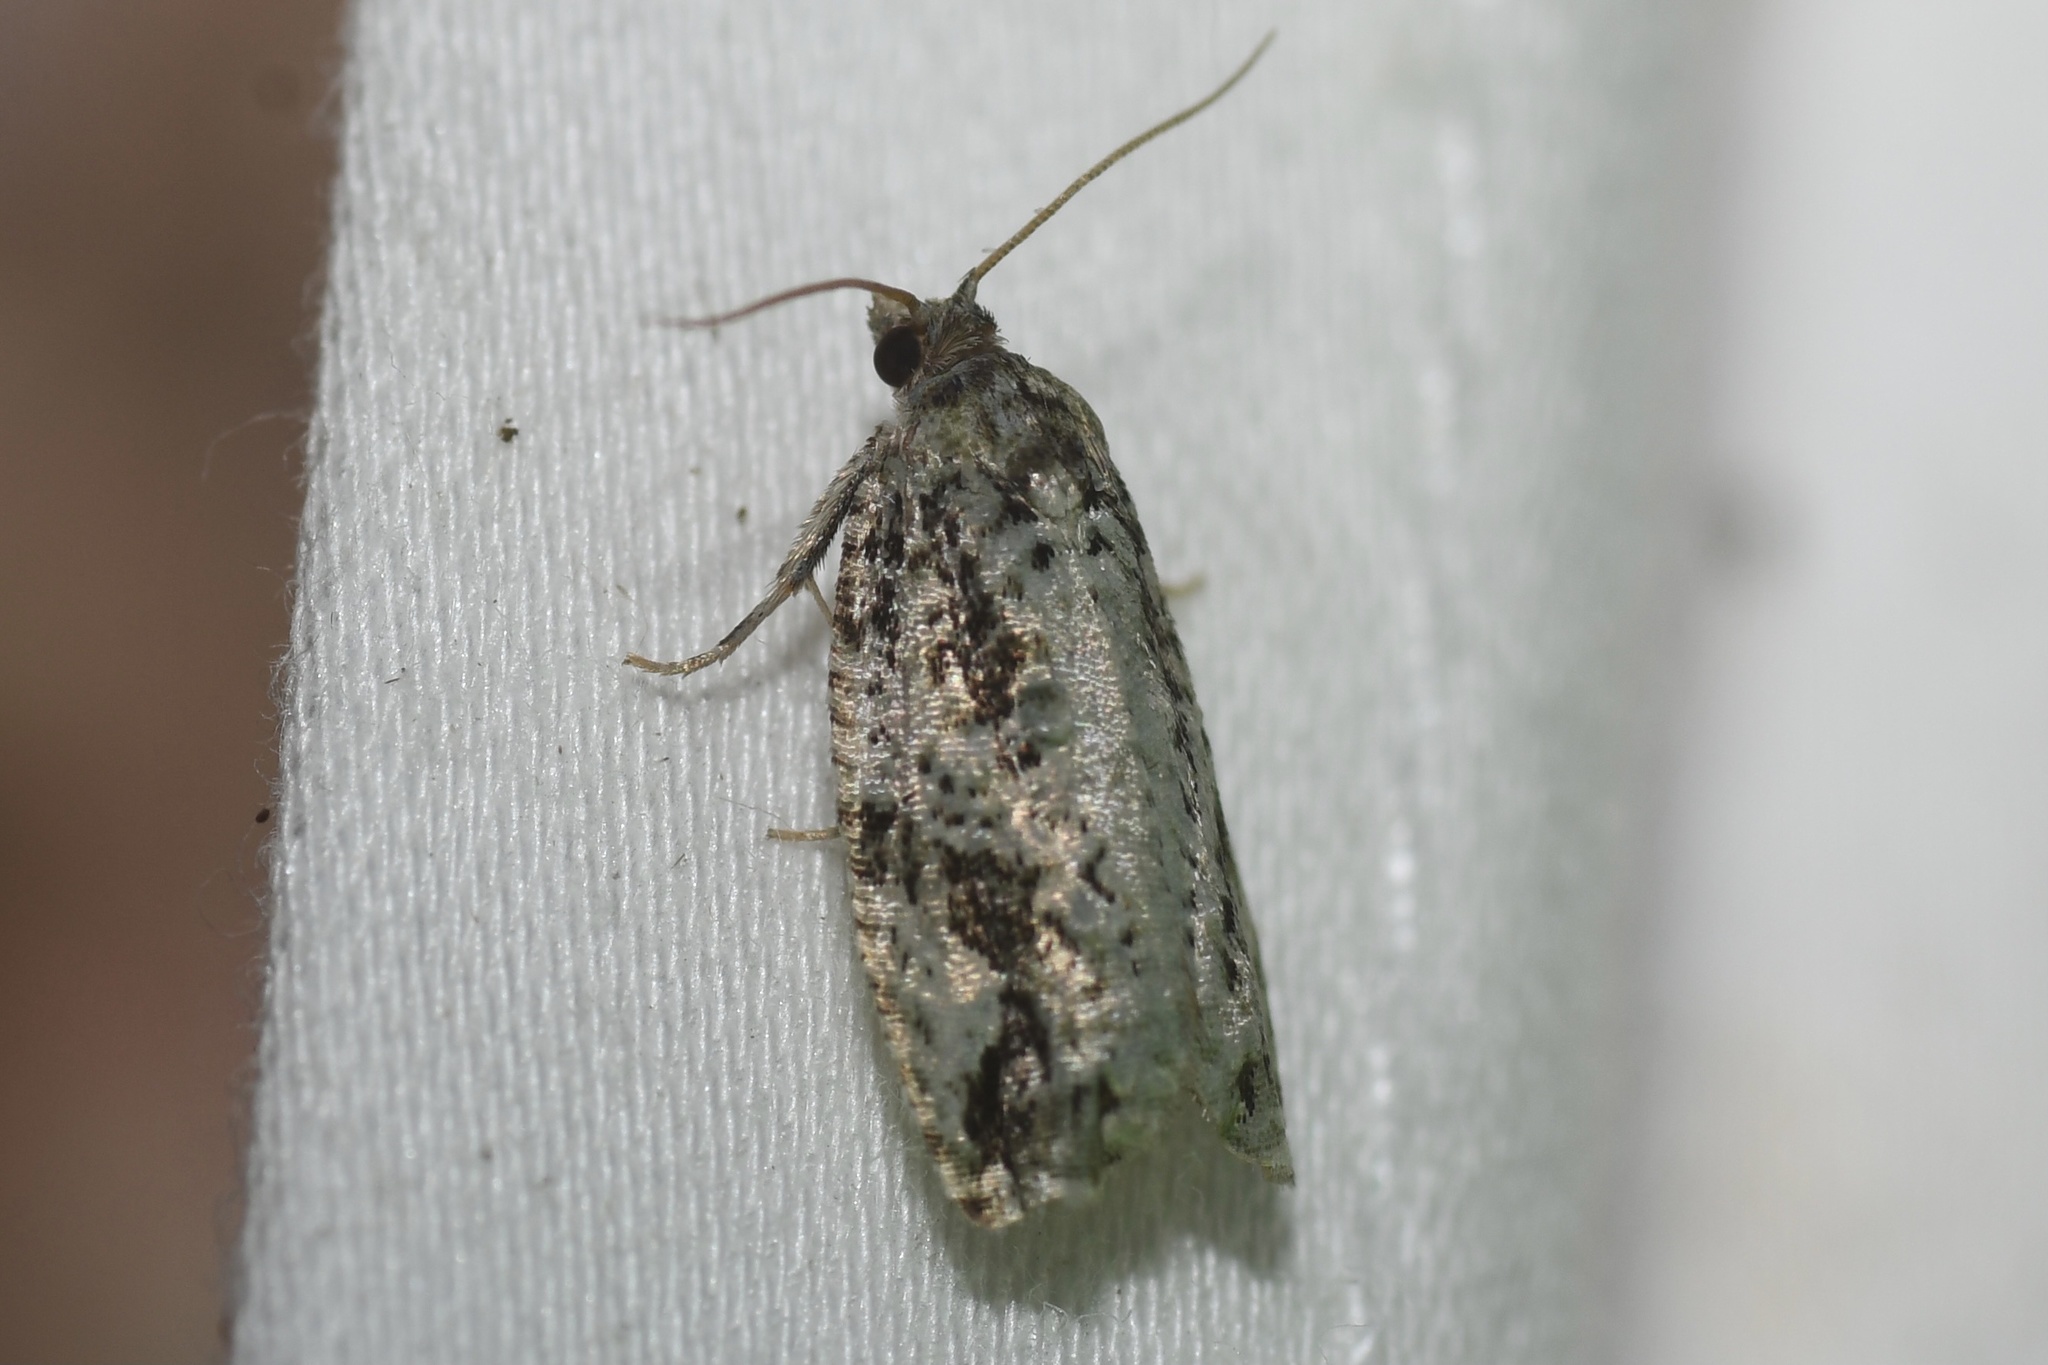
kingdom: Animalia
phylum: Arthropoda
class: Insecta
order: Lepidoptera
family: Tortricidae
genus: Proteoteras
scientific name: Proteoteras moffatiana
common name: Maple bud borer moth
